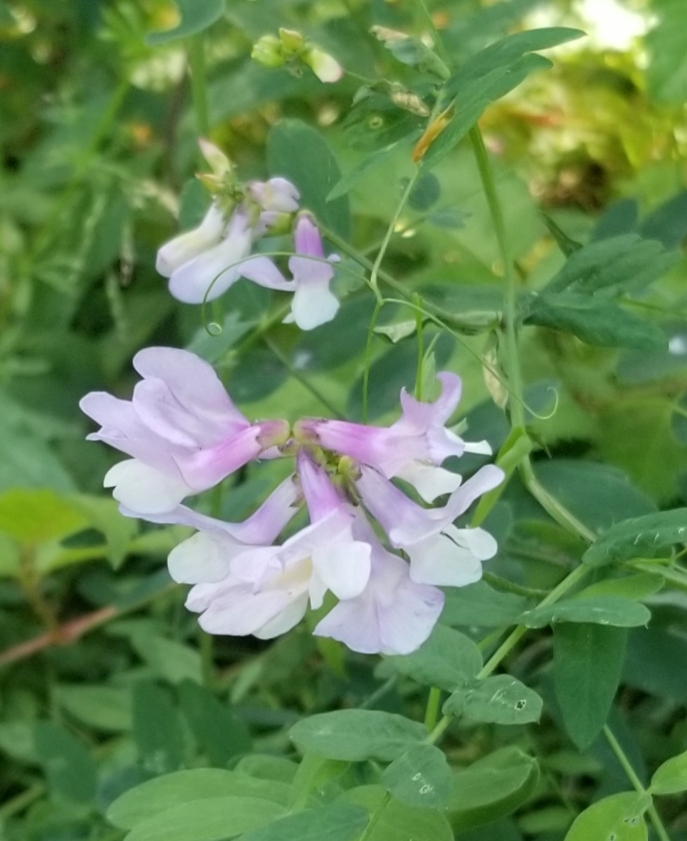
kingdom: Plantae
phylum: Tracheophyta
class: Magnoliopsida
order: Fabales
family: Fabaceae
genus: Vicia
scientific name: Vicia americana
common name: American vetch
